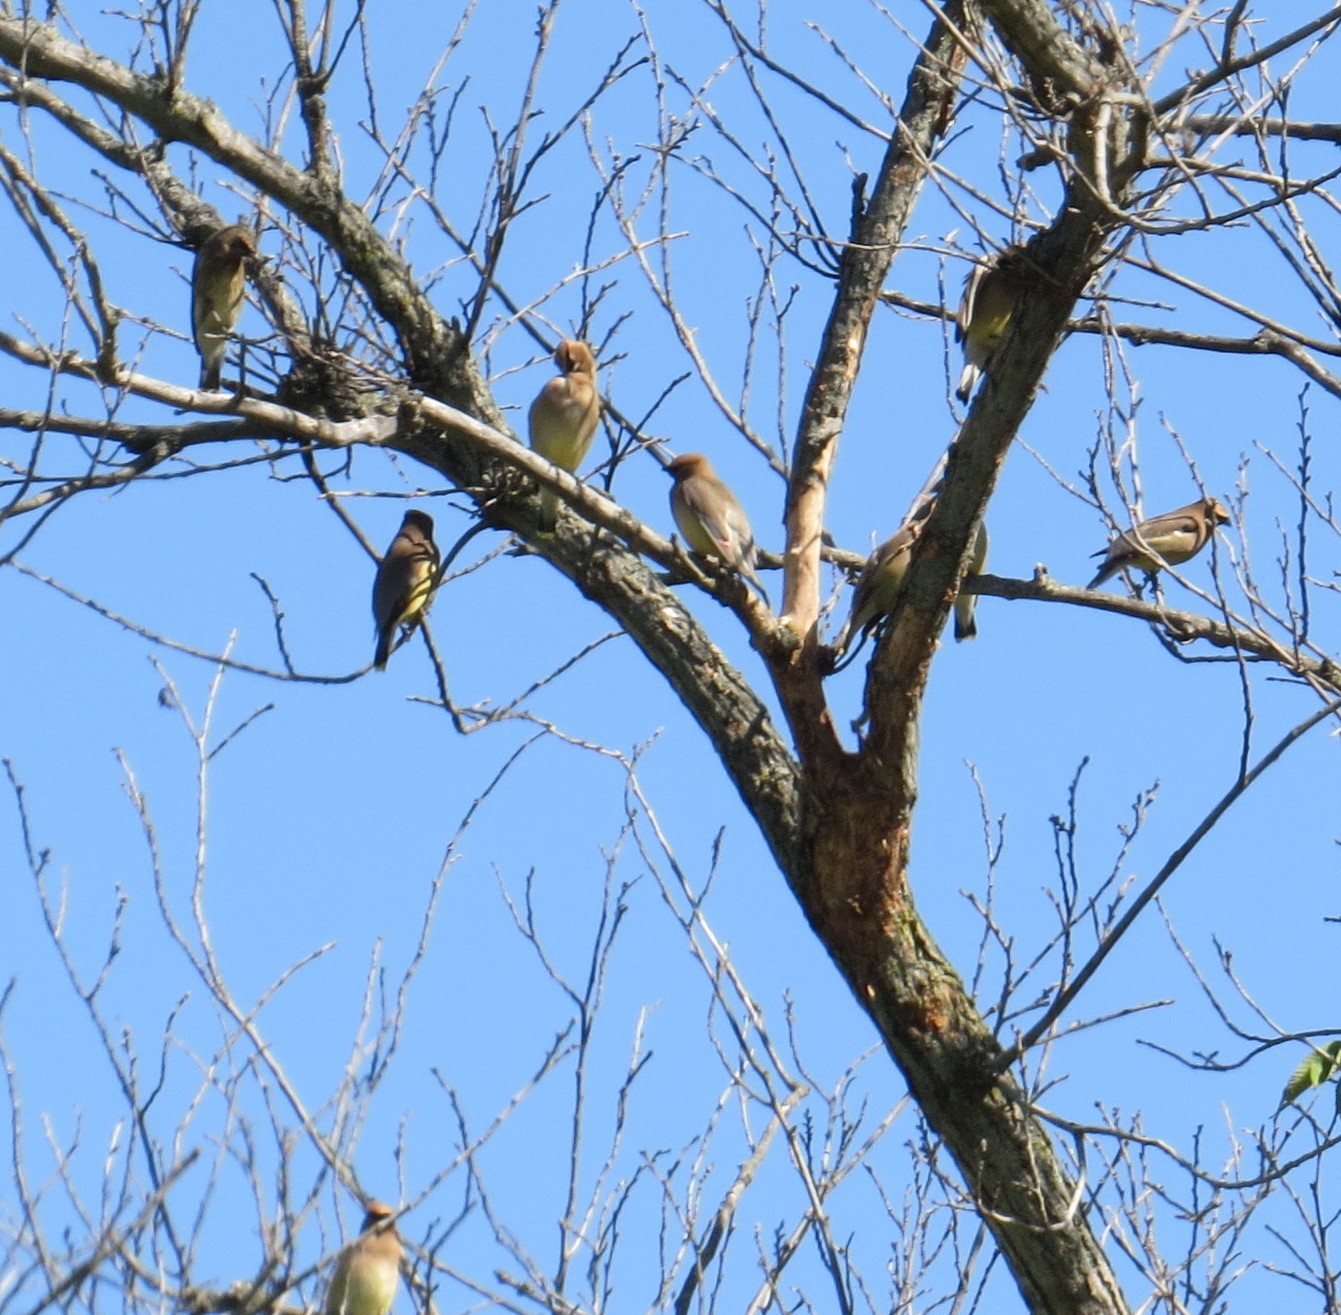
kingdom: Animalia
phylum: Chordata
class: Aves
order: Passeriformes
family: Bombycillidae
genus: Bombycilla
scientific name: Bombycilla cedrorum
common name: Cedar waxwing
